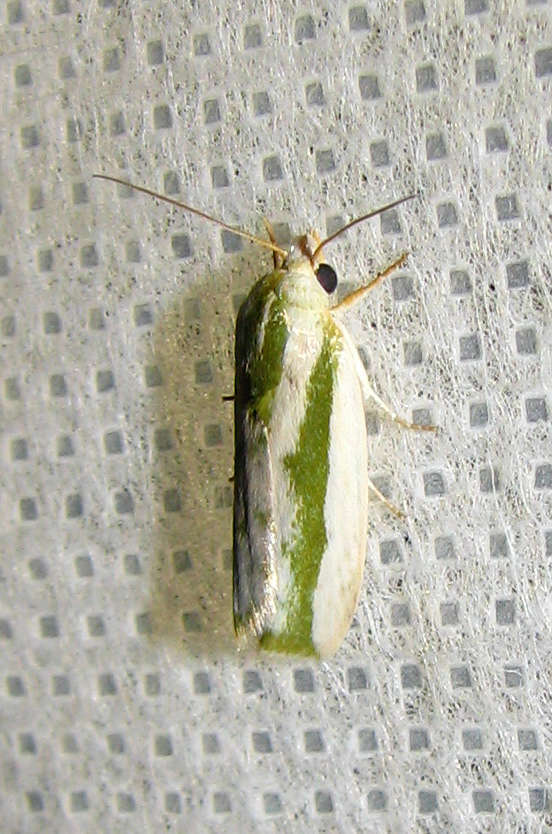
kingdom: Animalia
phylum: Arthropoda
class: Insecta
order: Lepidoptera
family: Nolidae
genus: Earias
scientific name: Earias huegeliana
